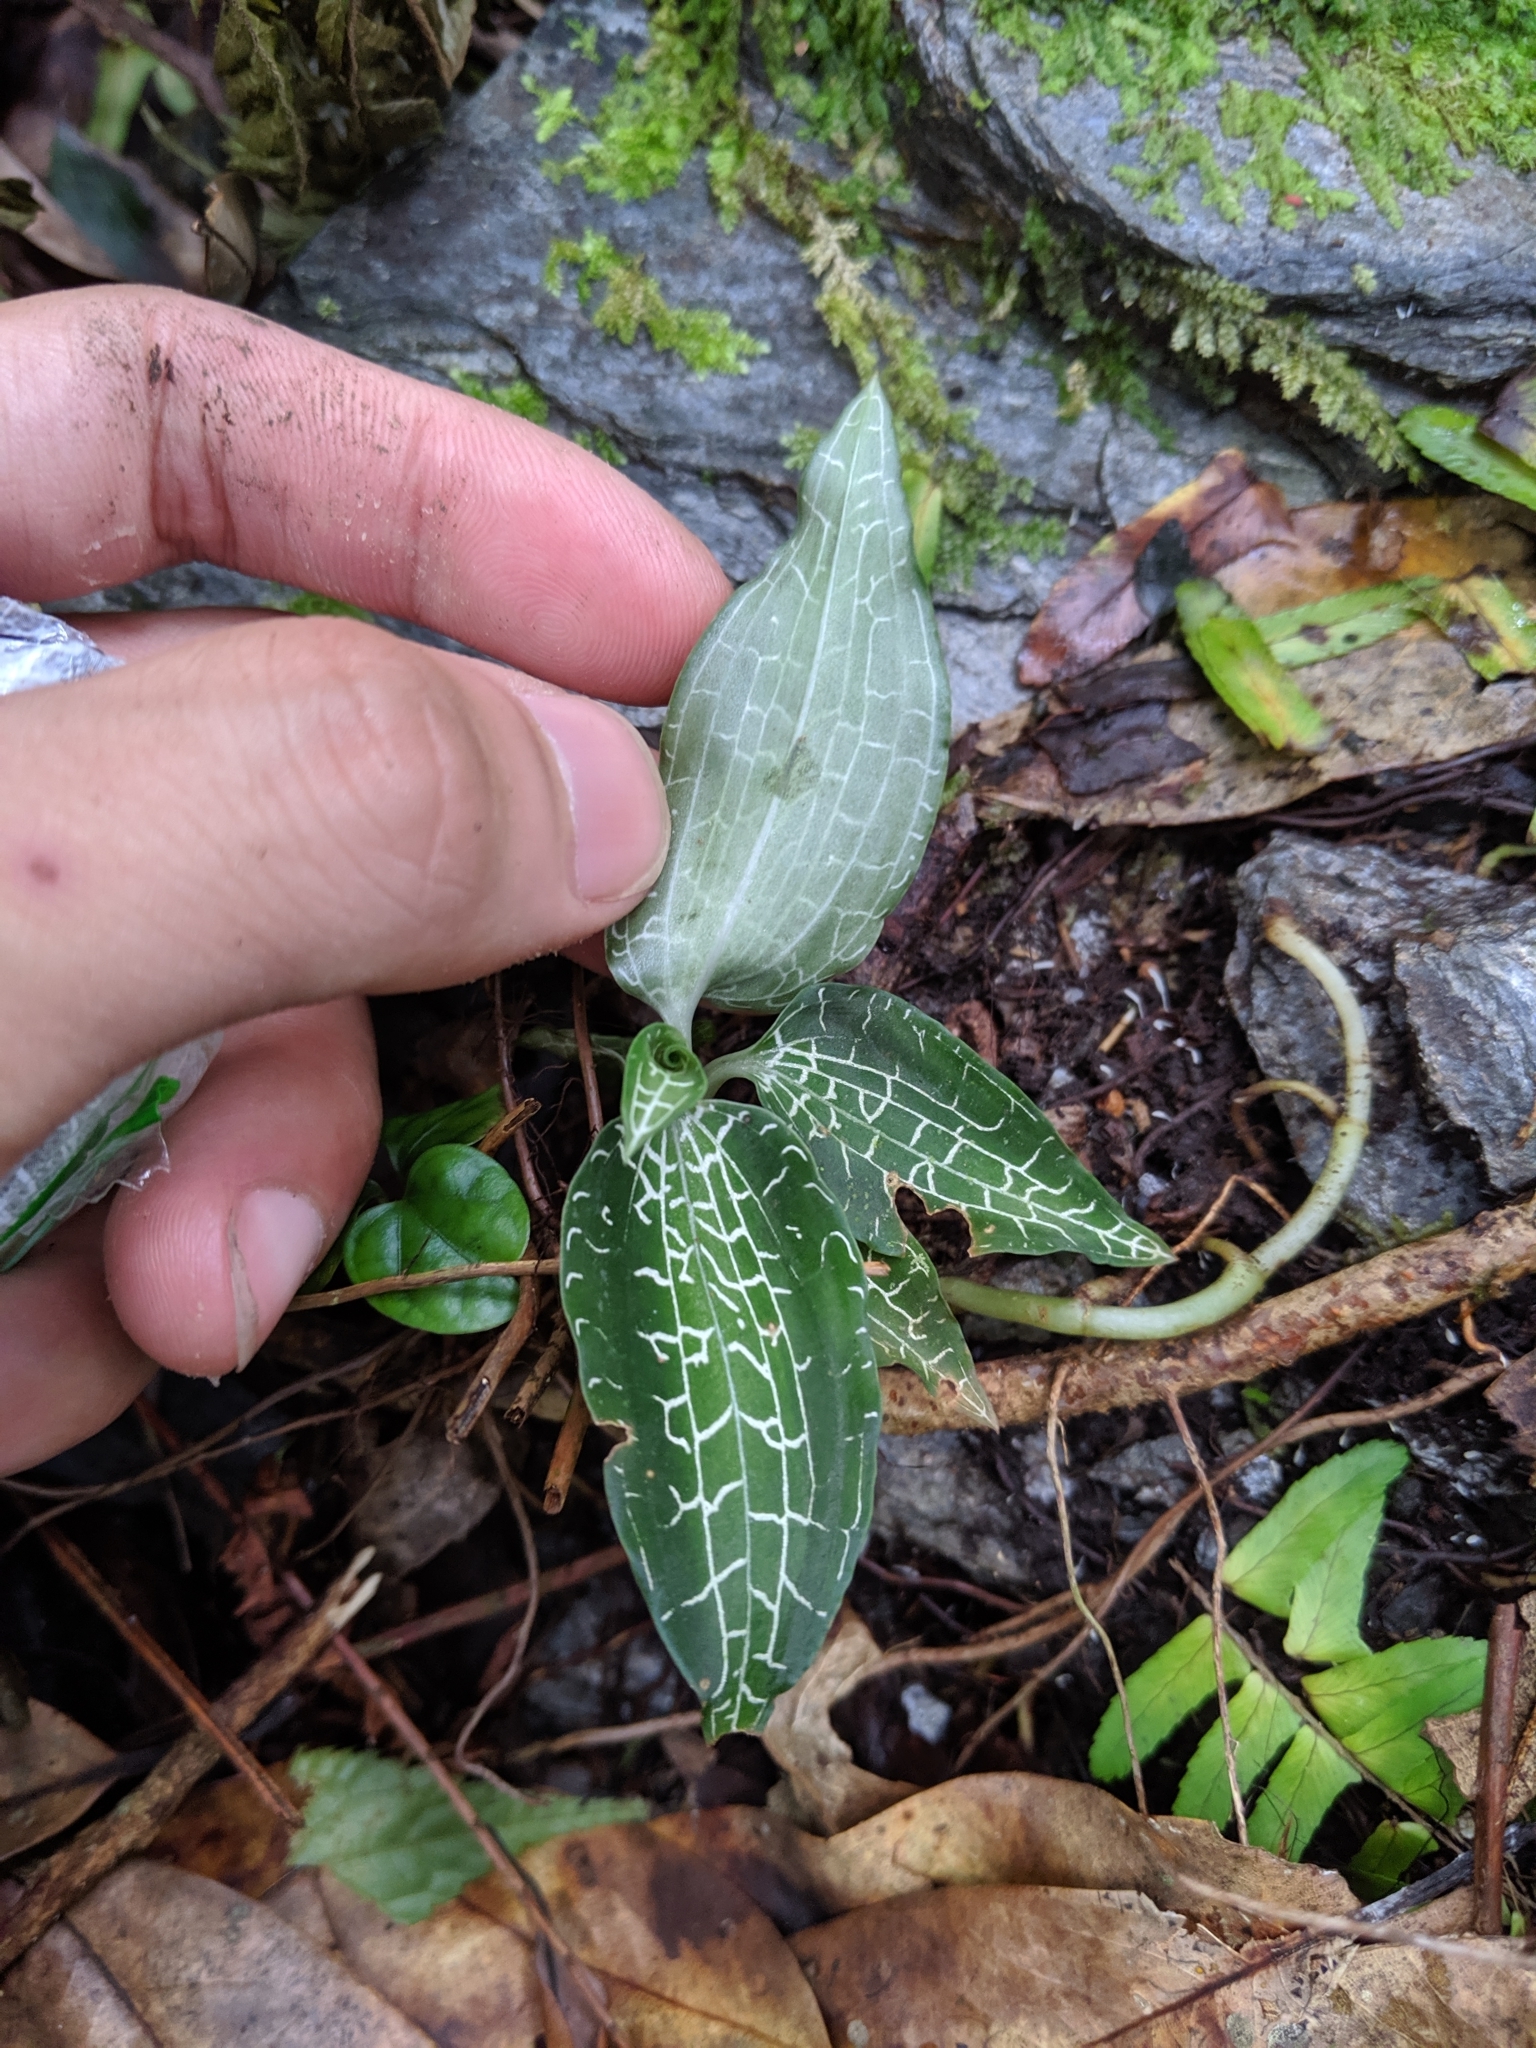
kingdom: Plantae
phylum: Tracheophyta
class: Liliopsida
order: Asparagales
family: Orchidaceae
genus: Goodyera
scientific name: Goodyera reticulata
